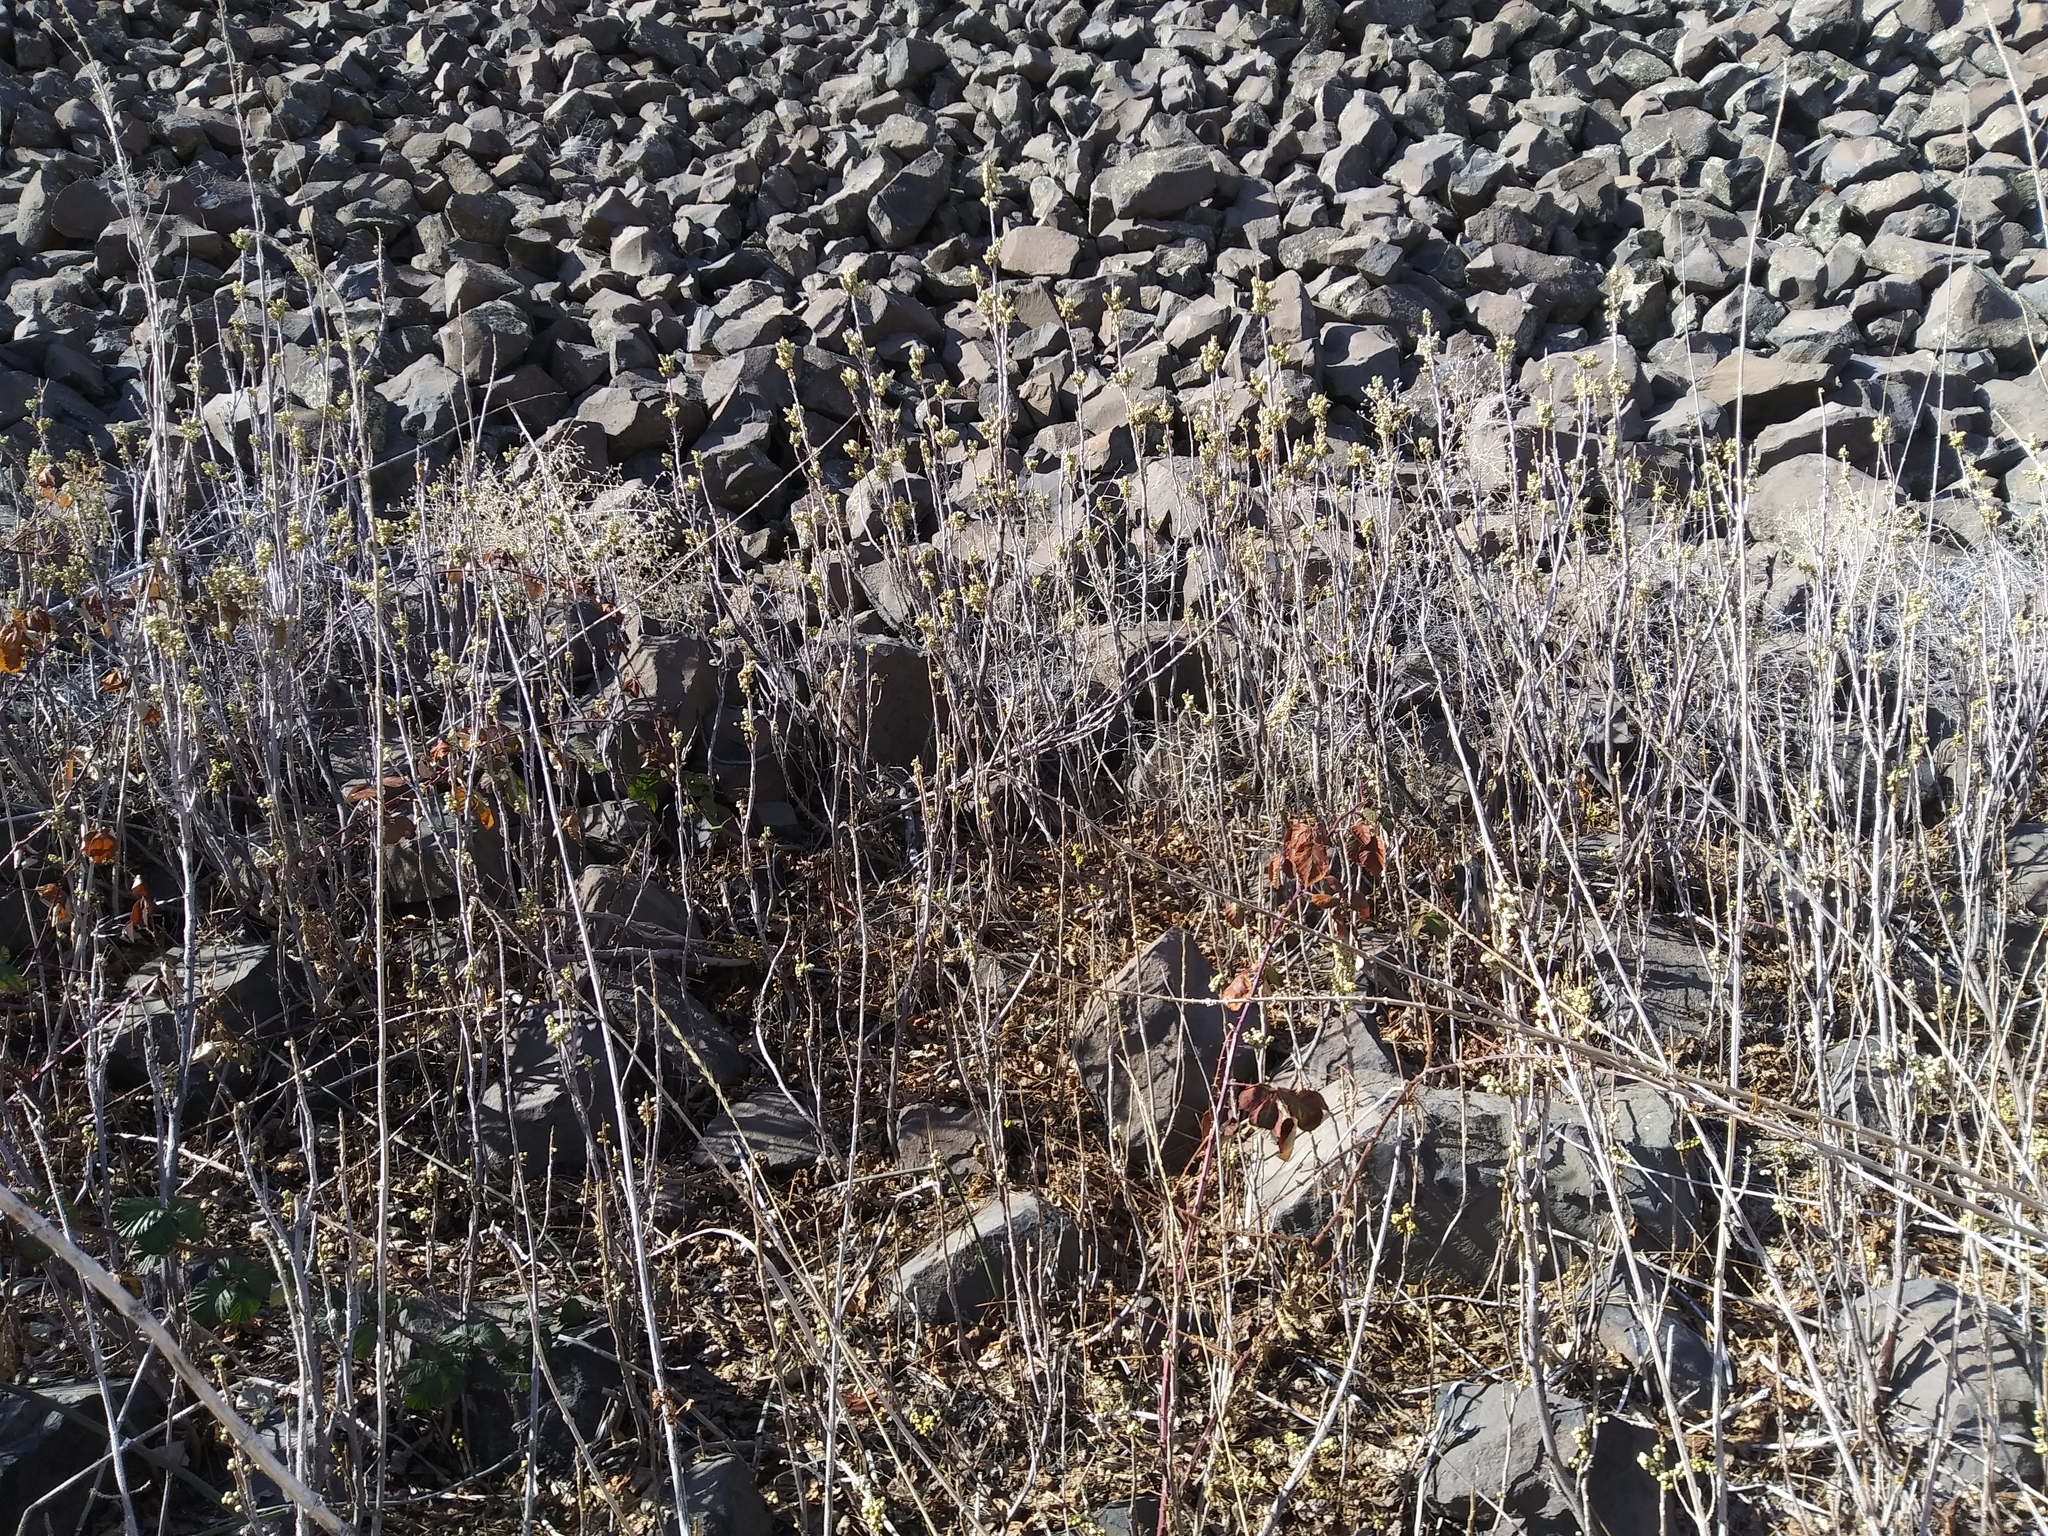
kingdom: Plantae
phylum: Tracheophyta
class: Magnoliopsida
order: Sapindales
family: Anacardiaceae
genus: Toxicodendron
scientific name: Toxicodendron rydbergii
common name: Rydberg's poison-ivy
